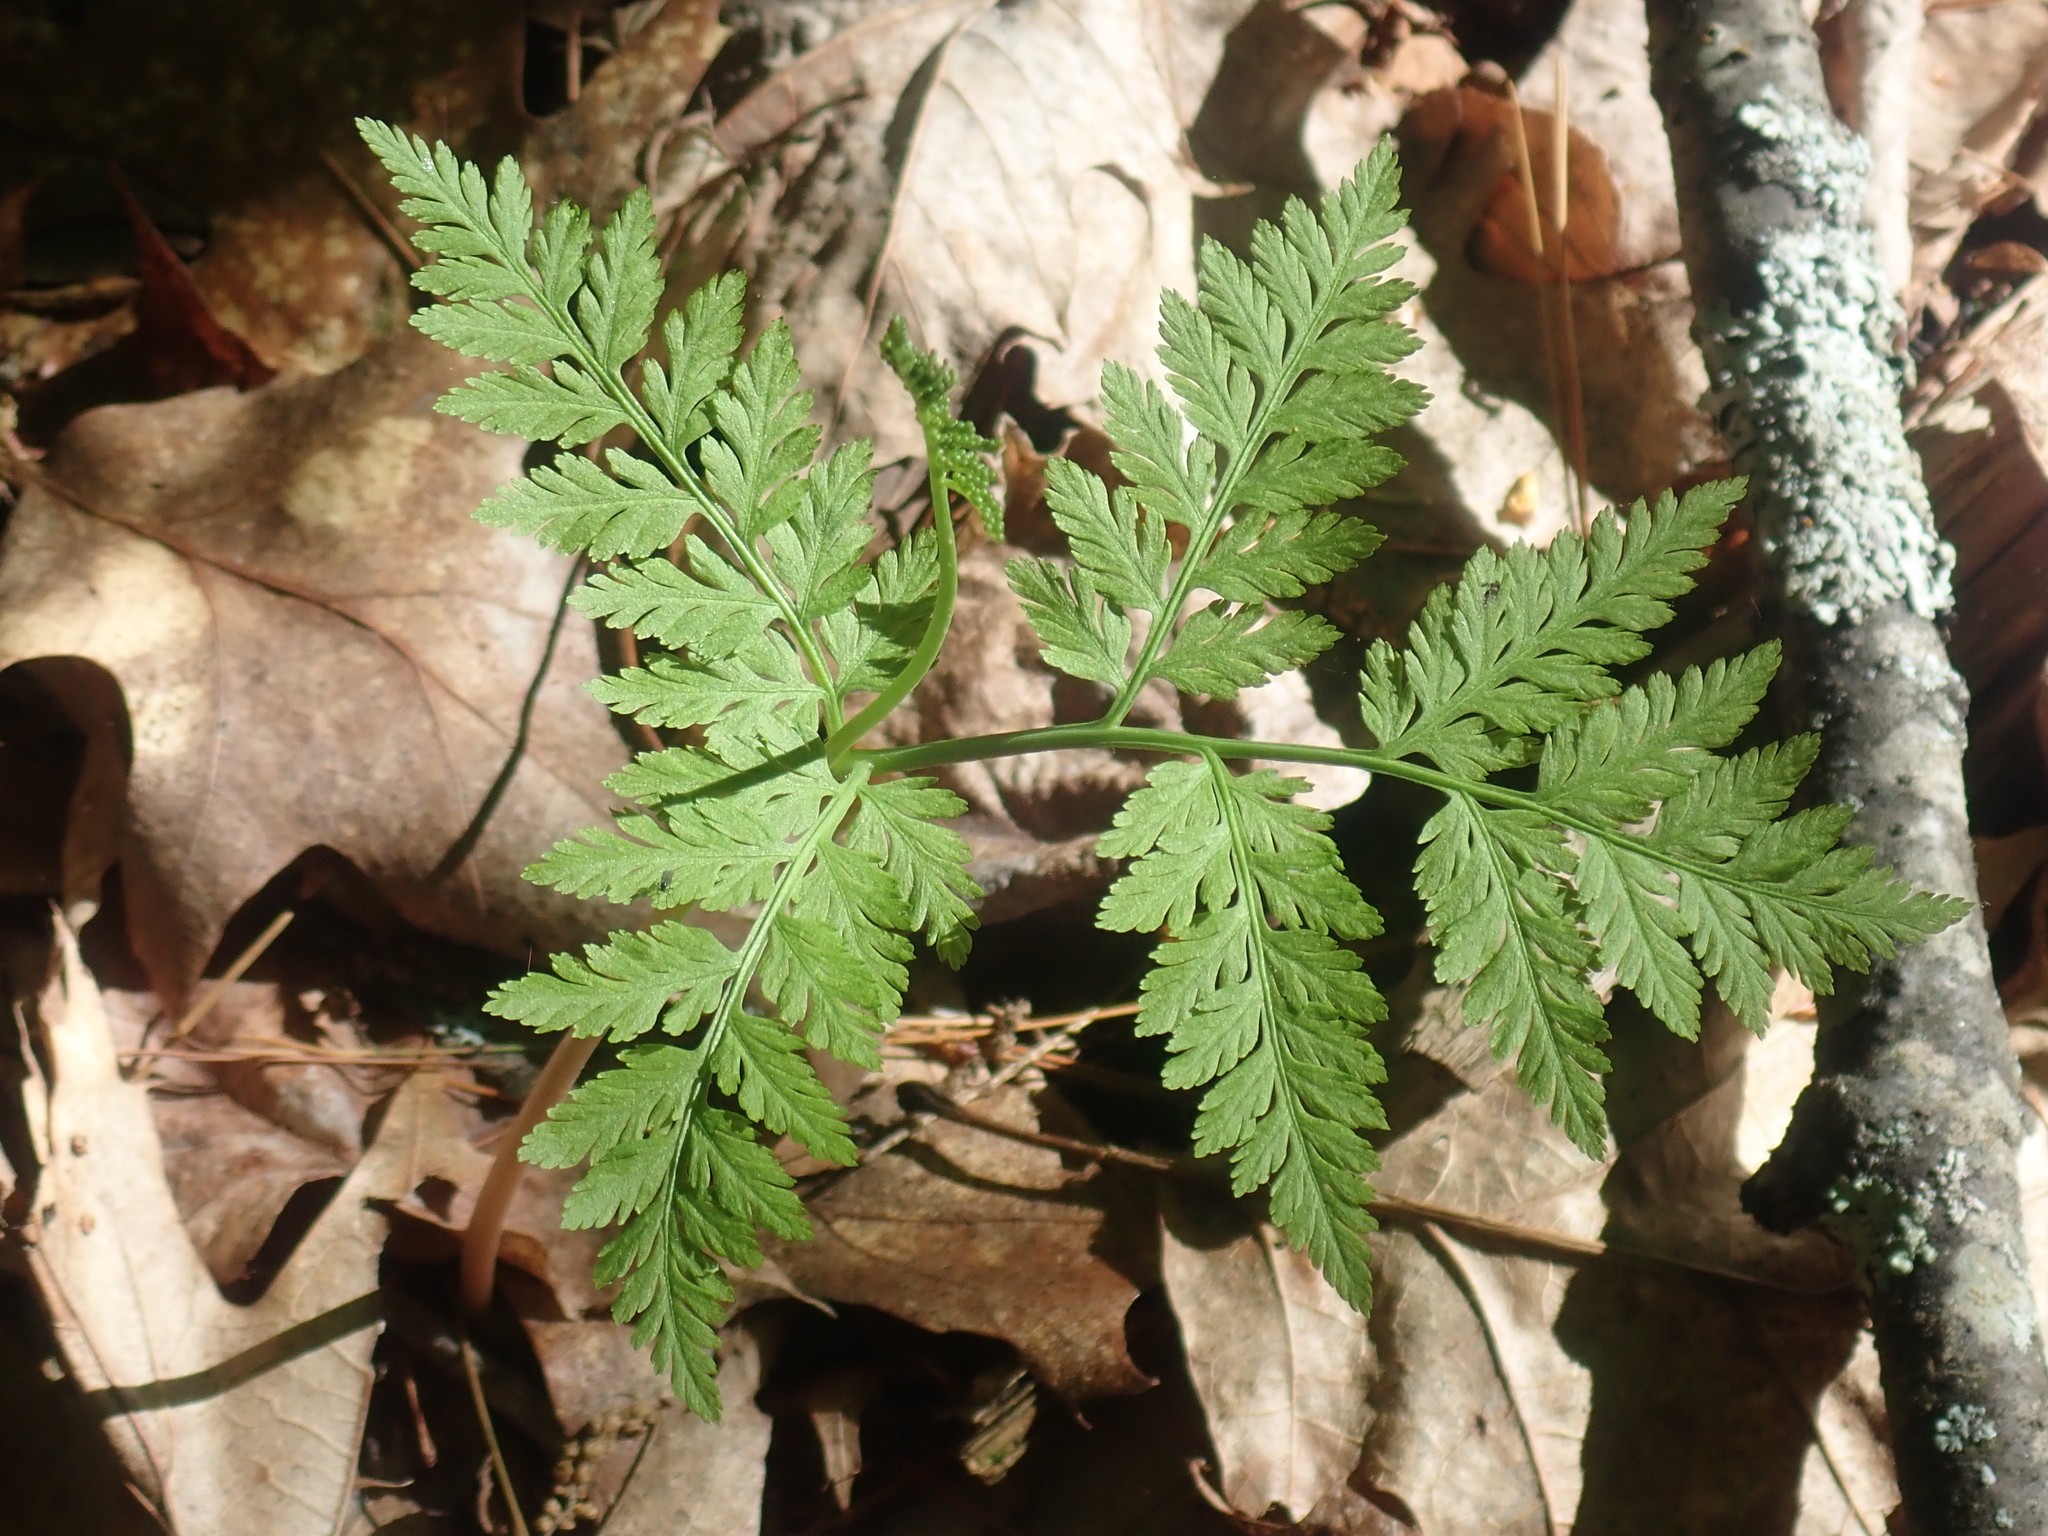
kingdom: Plantae
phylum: Tracheophyta
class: Polypodiopsida
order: Ophioglossales
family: Ophioglossaceae
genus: Botrypus
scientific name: Botrypus virginianus
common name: Common grapefern
